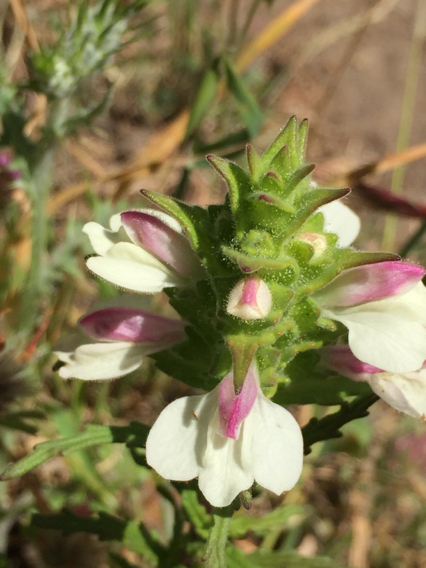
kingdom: Plantae
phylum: Tracheophyta
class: Magnoliopsida
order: Lamiales
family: Orobanchaceae
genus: Bellardia
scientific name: Bellardia trixago
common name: Mediterranean lineseed
